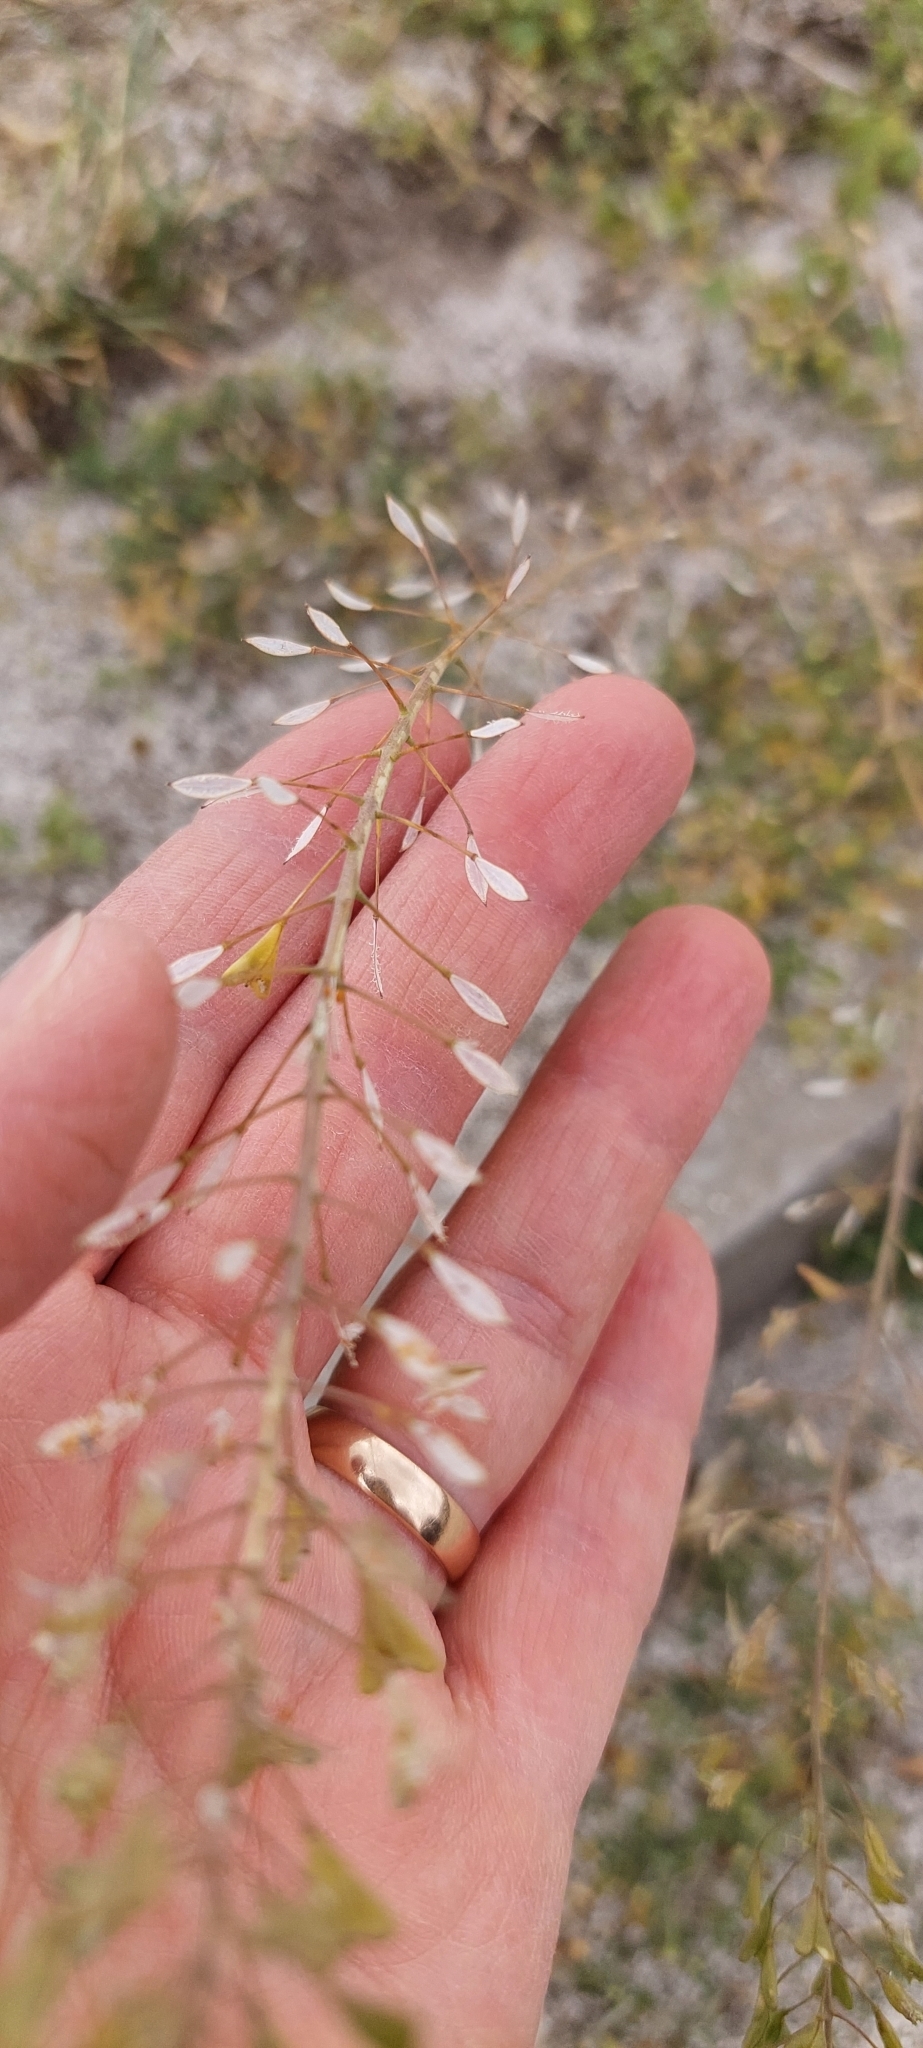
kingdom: Plantae
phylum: Tracheophyta
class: Magnoliopsida
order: Brassicales
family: Brassicaceae
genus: Capsella
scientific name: Capsella bursa-pastoris
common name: Shepherd's purse
